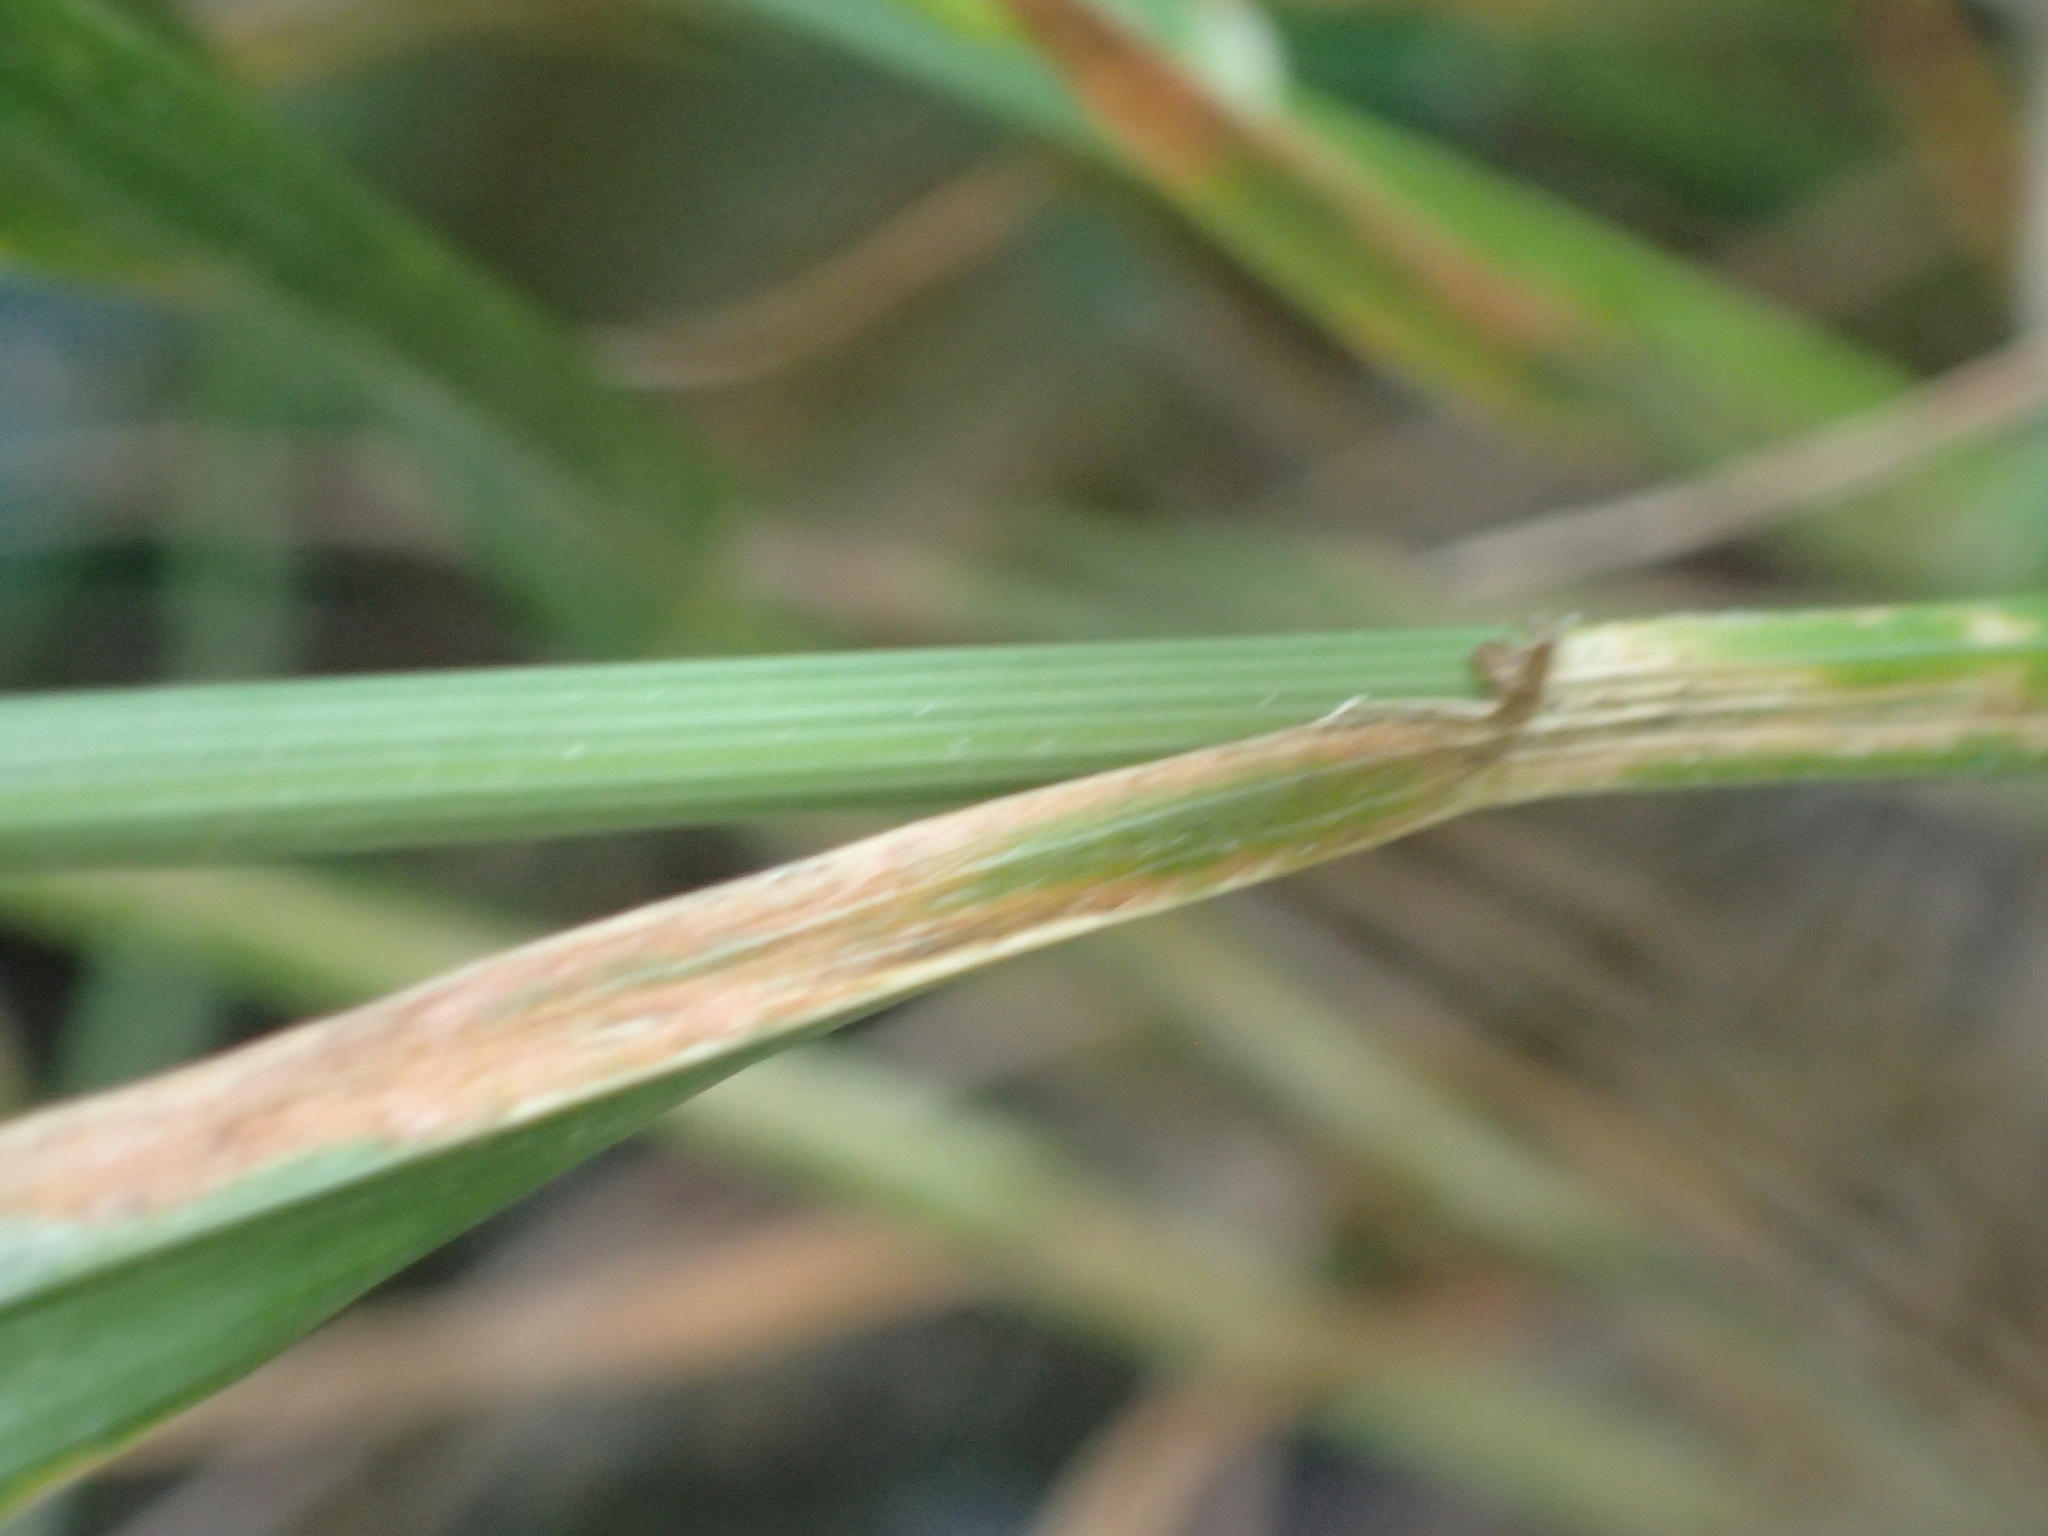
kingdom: Plantae
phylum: Tracheophyta
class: Liliopsida
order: Poales
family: Poaceae
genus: Lolium
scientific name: Lolium perenne
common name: Perennial ryegrass
